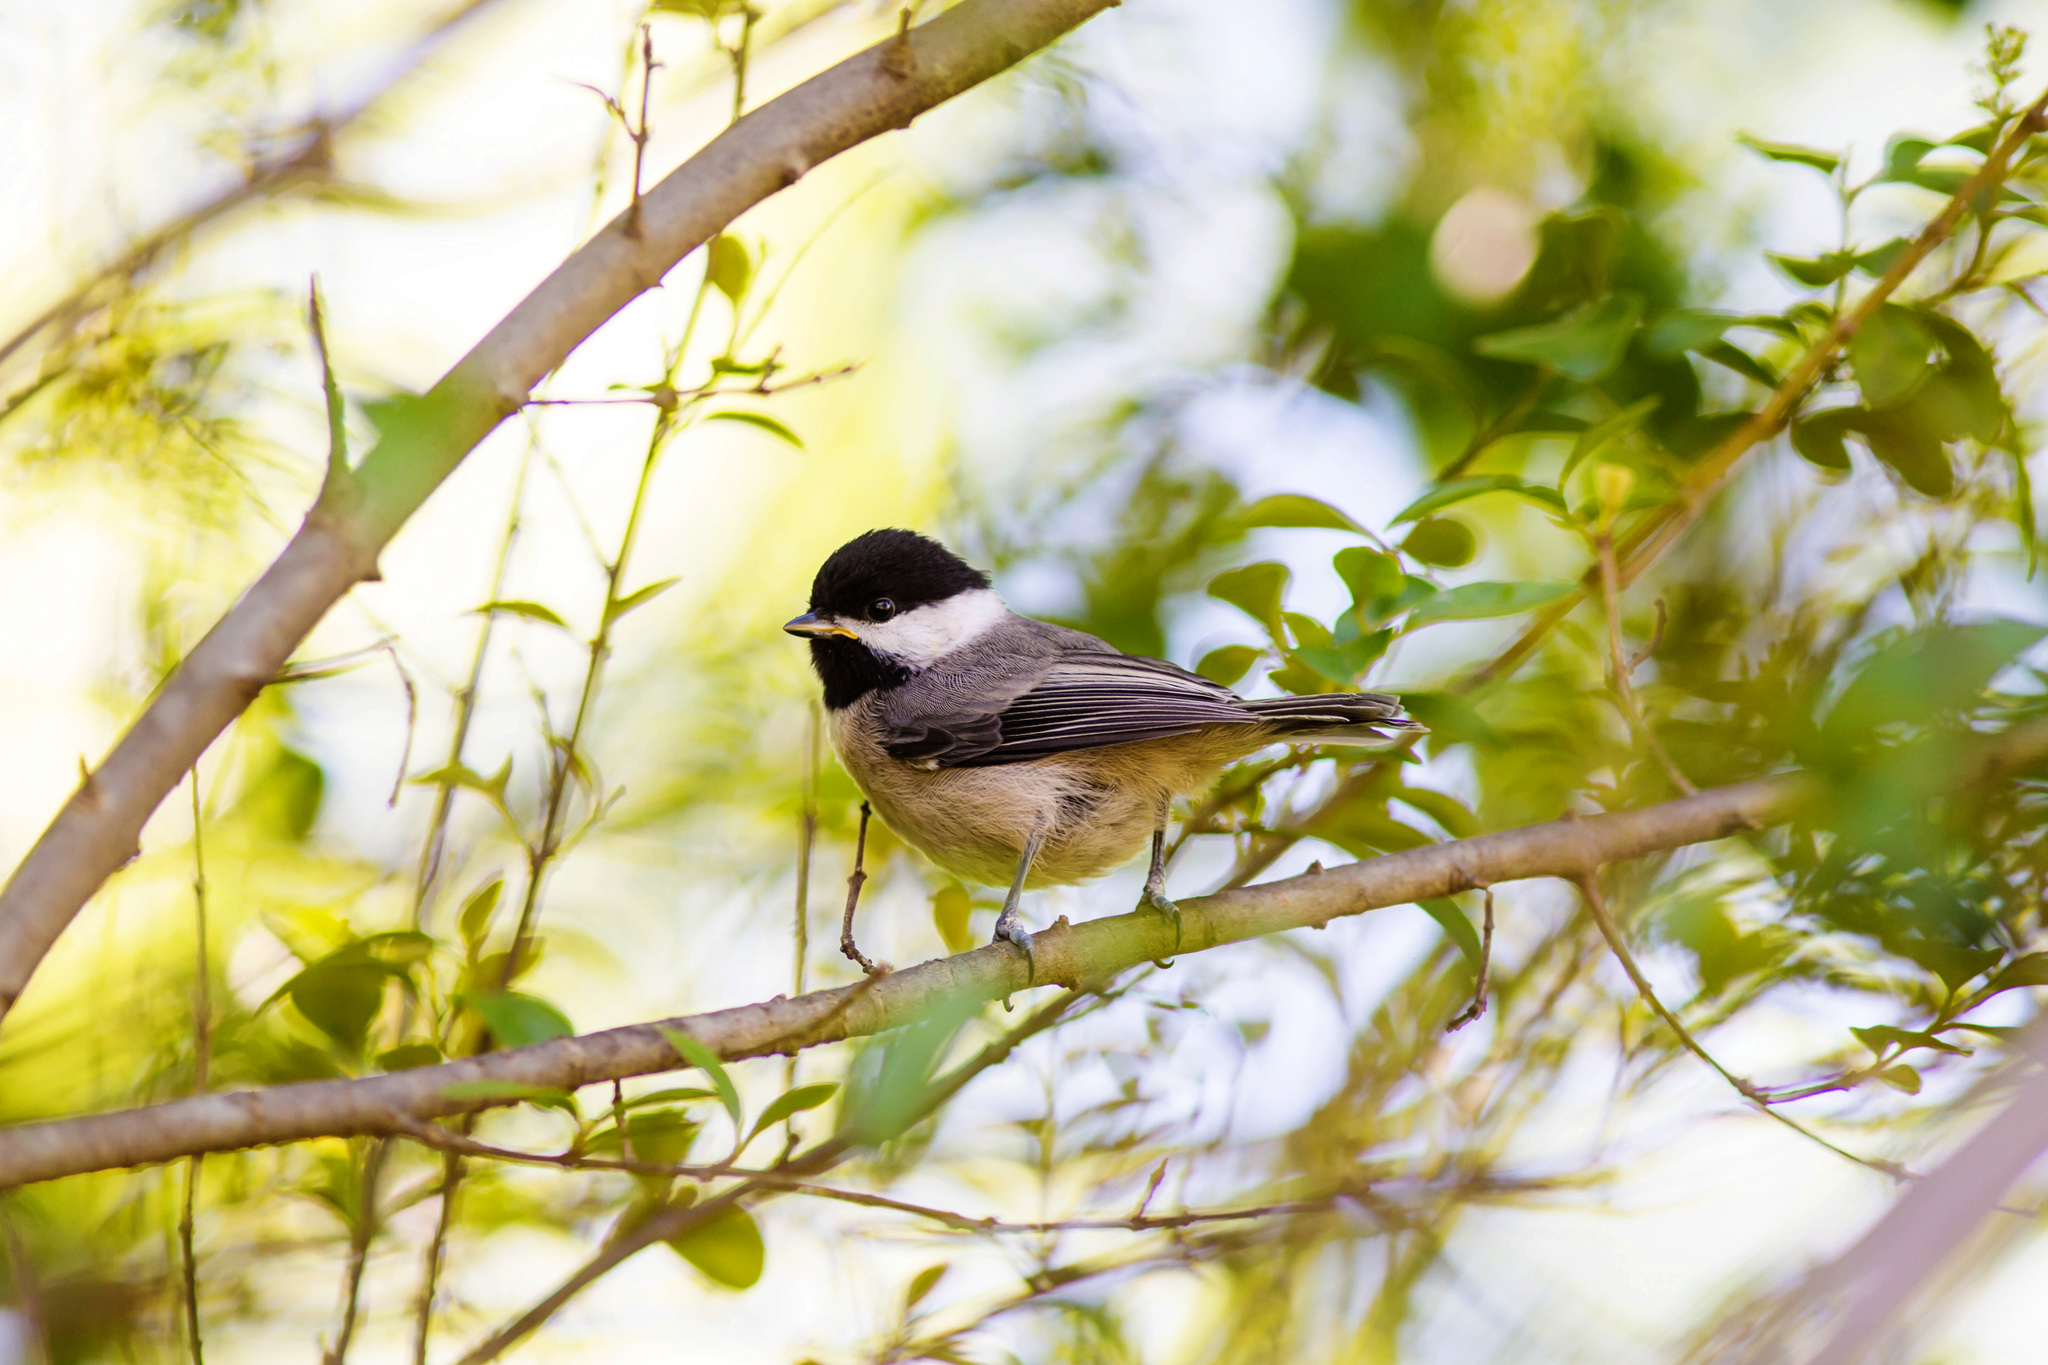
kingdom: Animalia
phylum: Chordata
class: Aves
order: Passeriformes
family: Paridae
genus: Poecile
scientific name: Poecile carolinensis
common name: Carolina chickadee
